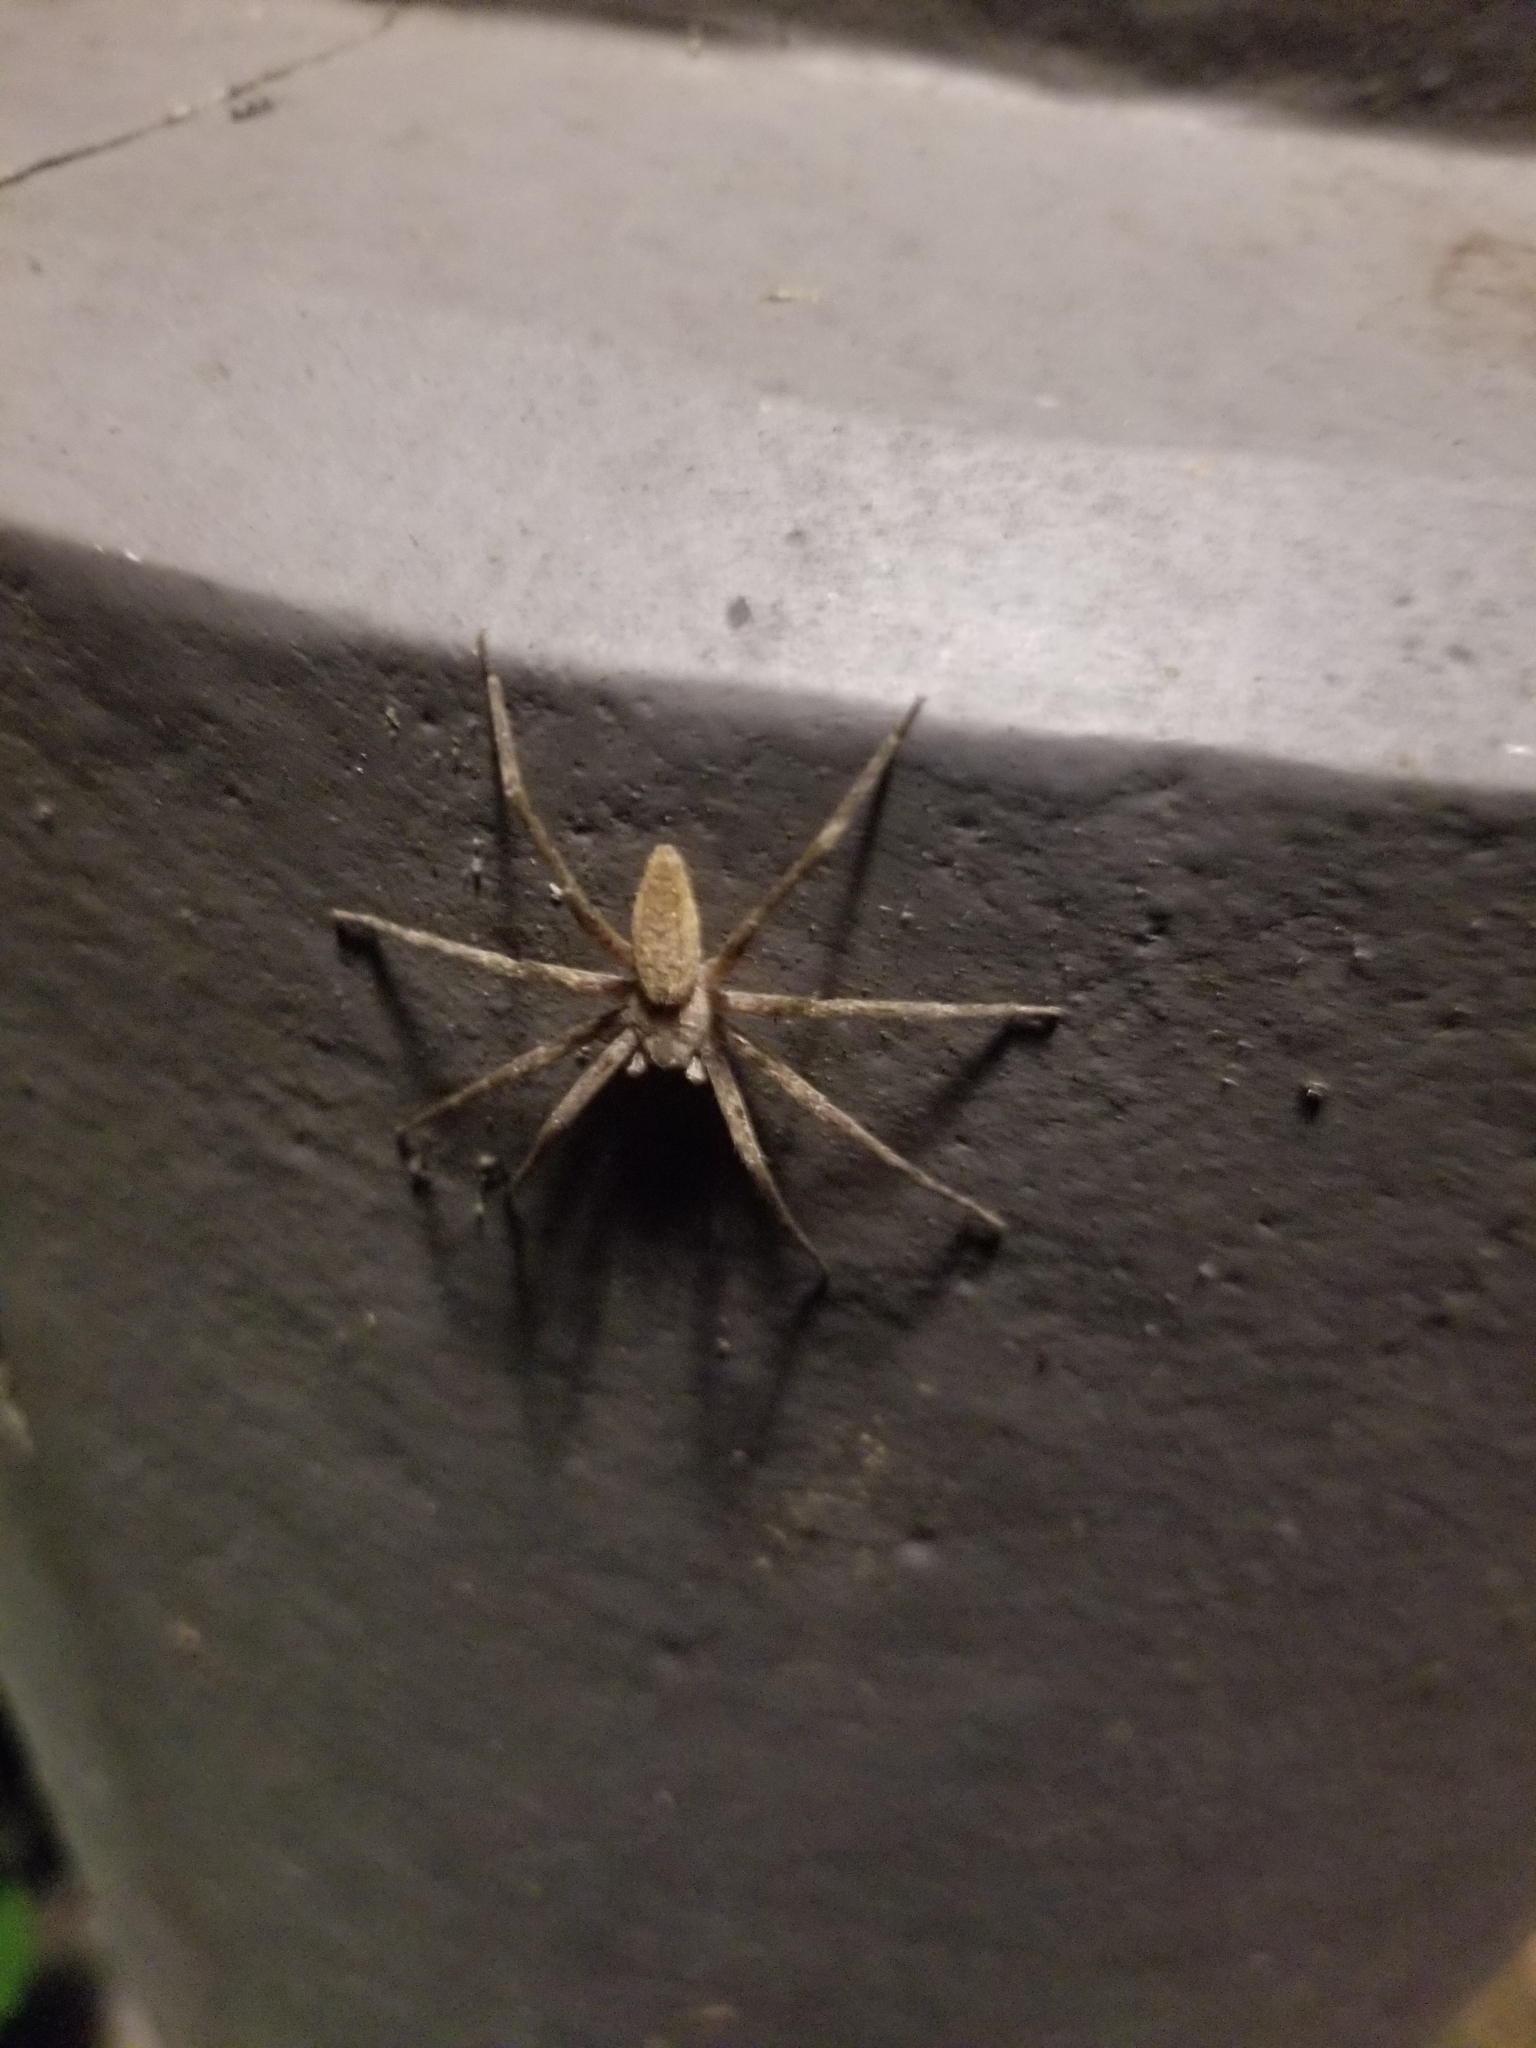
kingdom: Animalia
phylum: Arthropoda
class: Arachnida
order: Araneae
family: Pisauridae
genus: Pisaurina
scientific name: Pisaurina mira
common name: American nursery web spider
